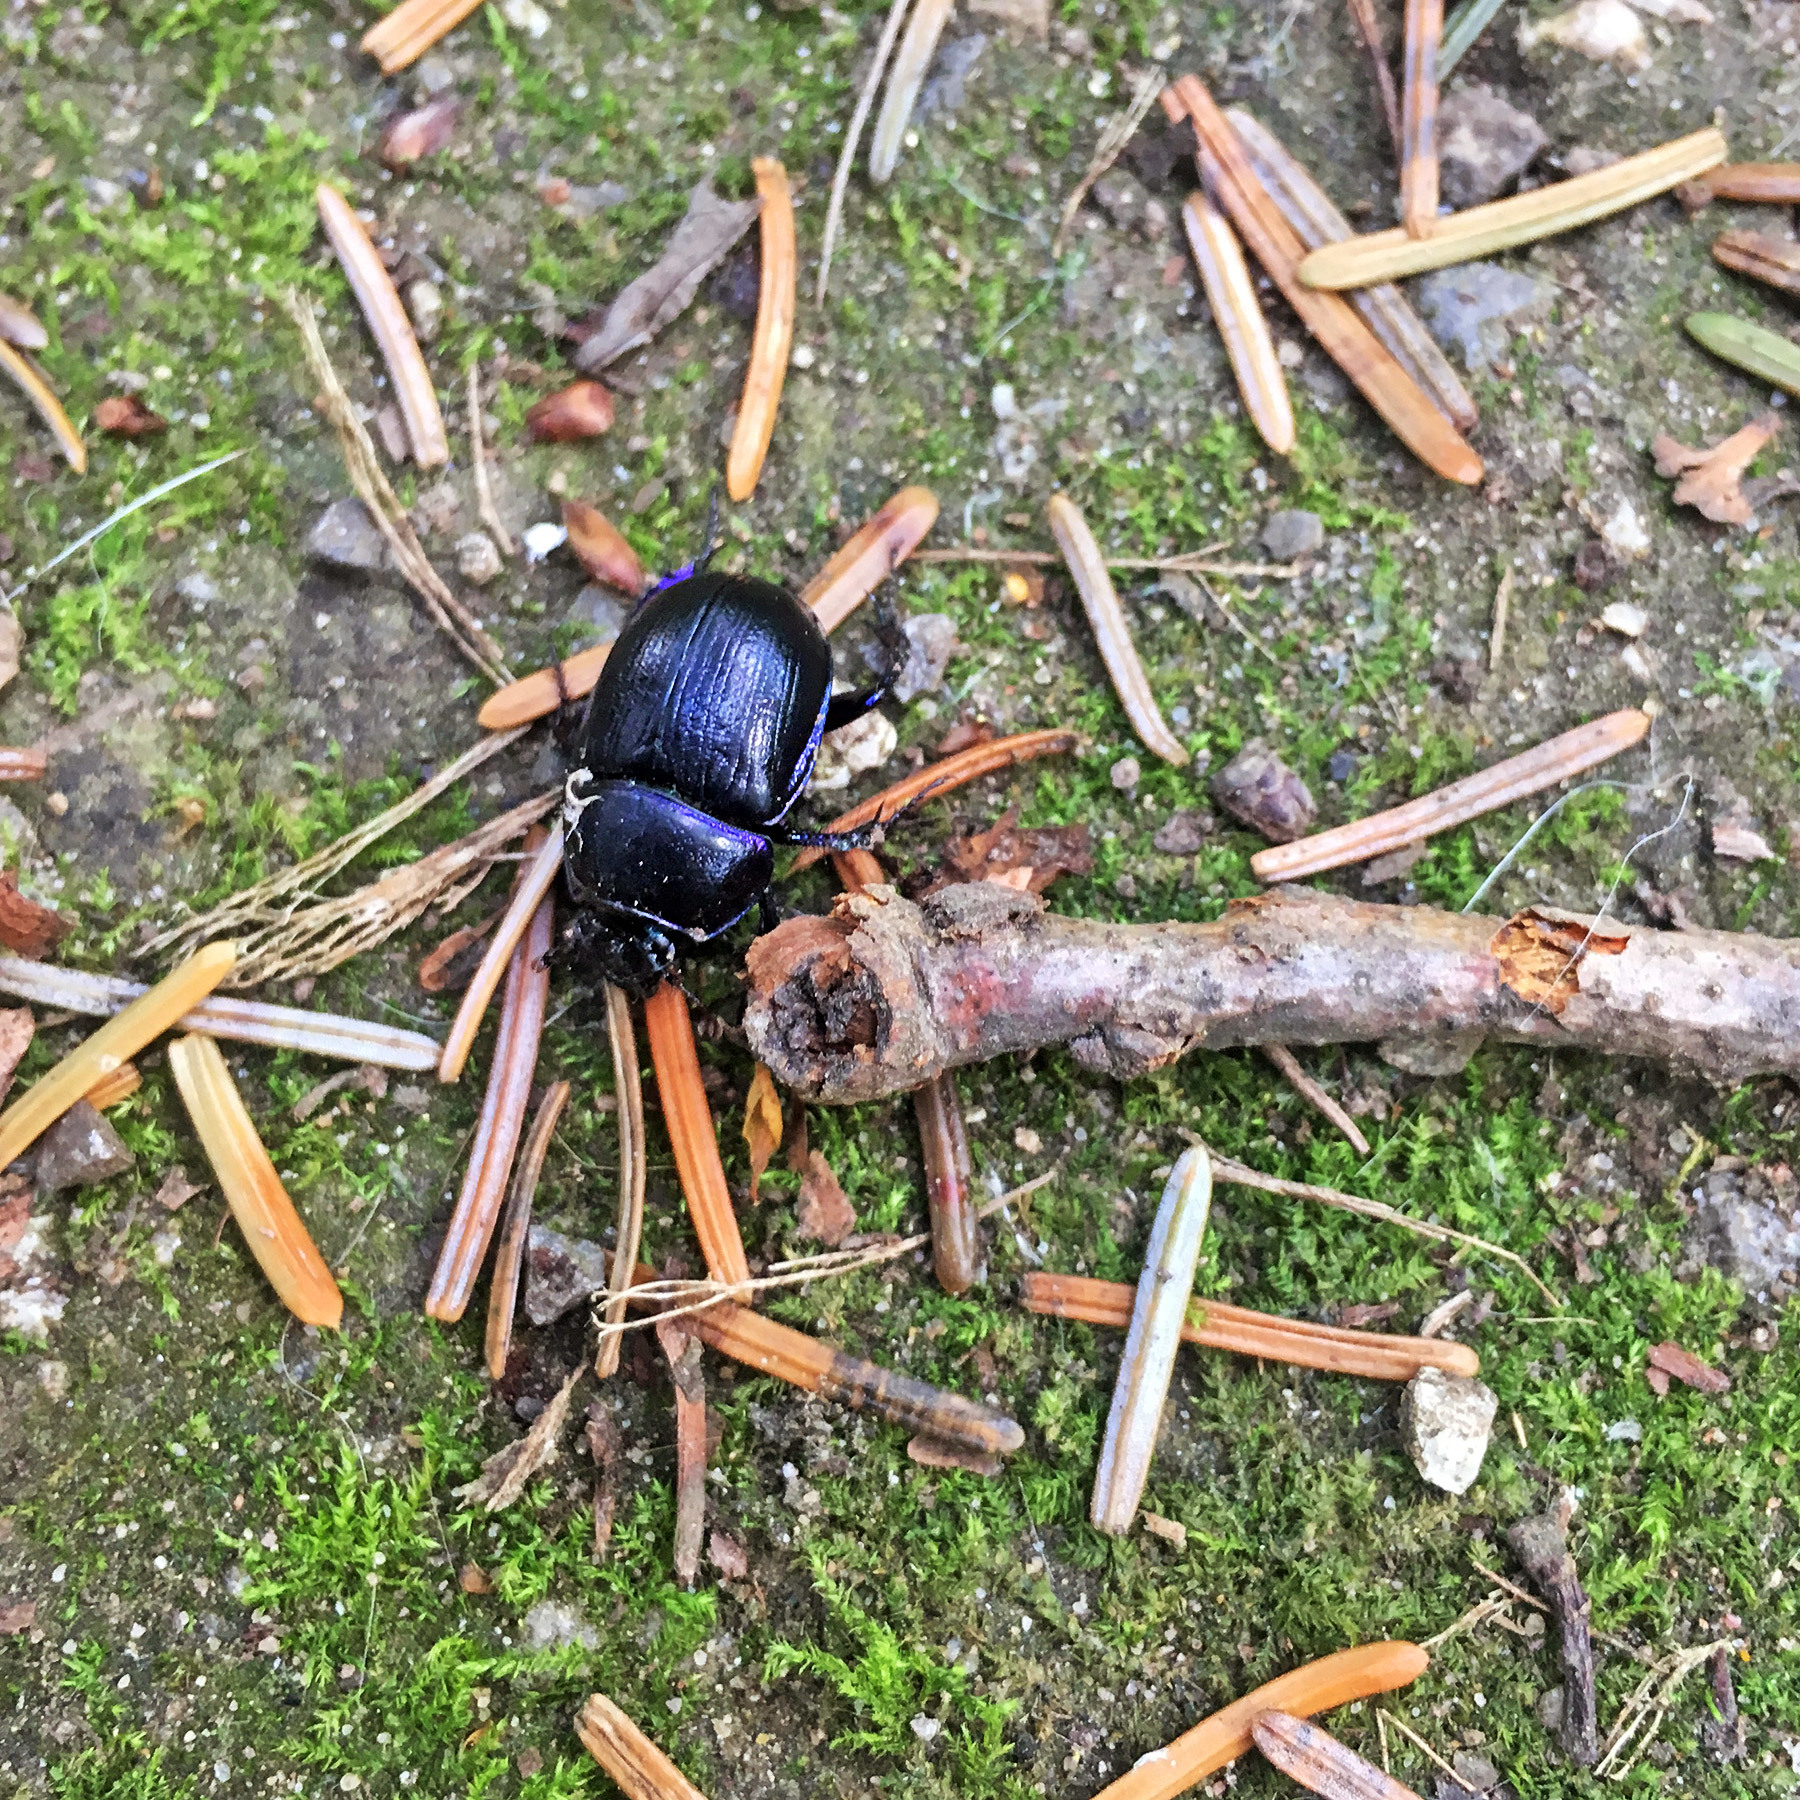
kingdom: Animalia
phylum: Arthropoda
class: Insecta
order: Coleoptera
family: Geotrupidae
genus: Anoplotrupes
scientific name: Anoplotrupes stercorosus
